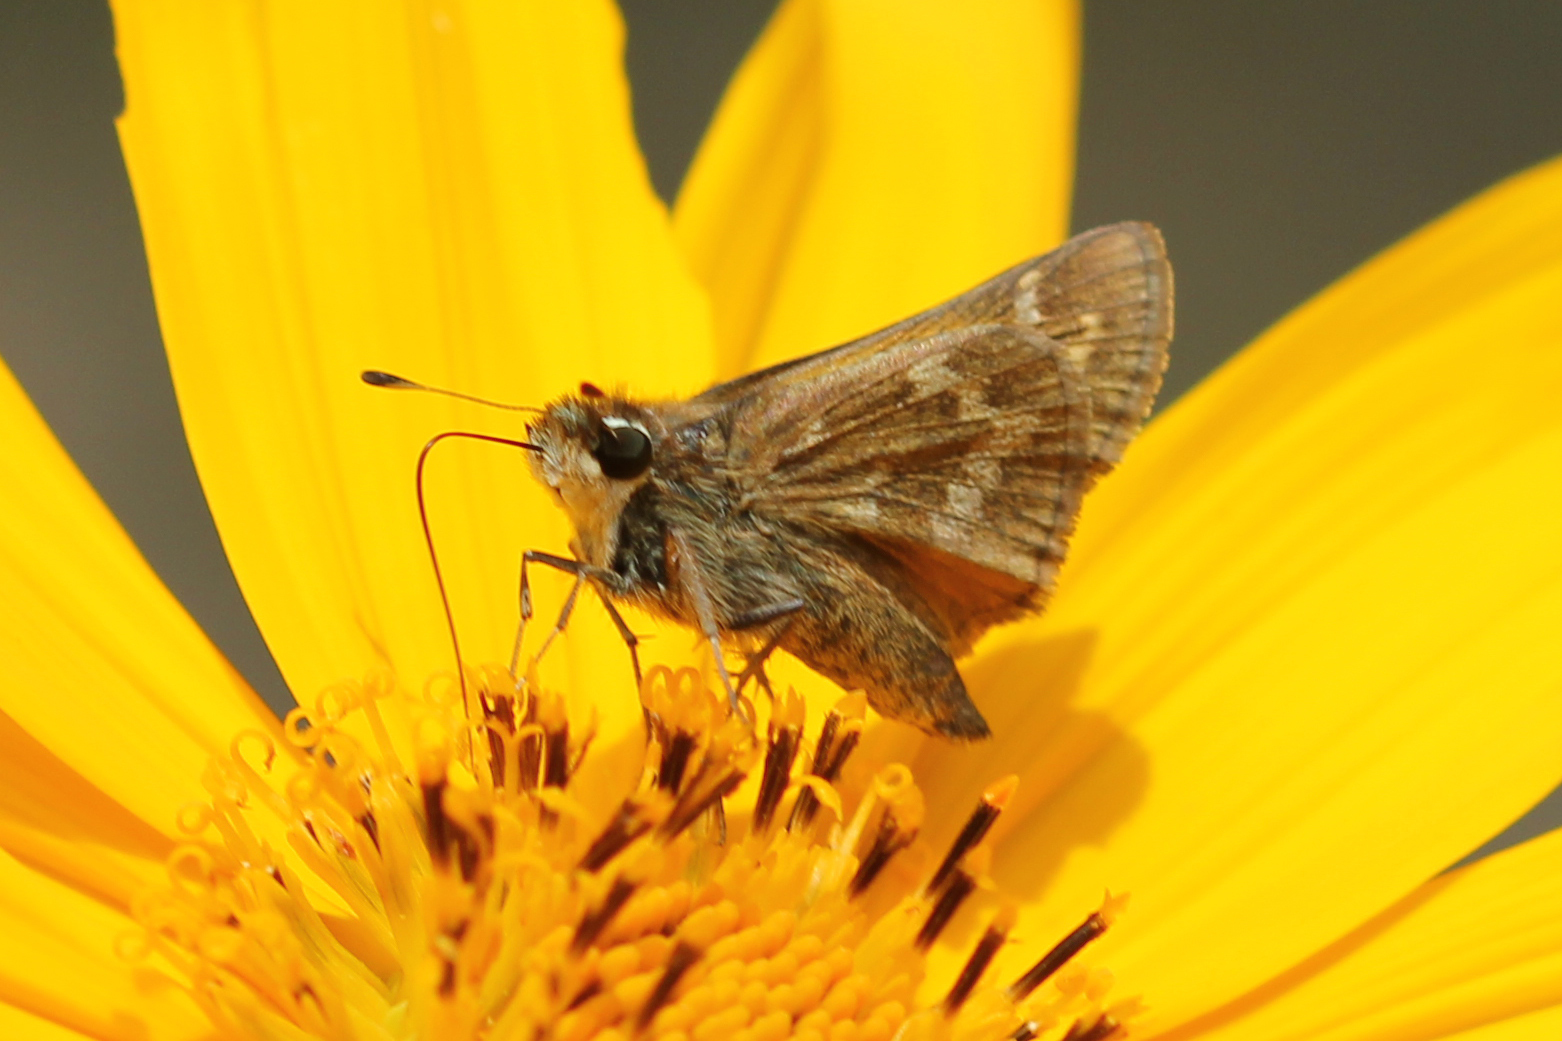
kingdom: Animalia
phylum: Arthropoda
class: Insecta
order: Lepidoptera
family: Hesperiidae
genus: Atalopedes
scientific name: Atalopedes
